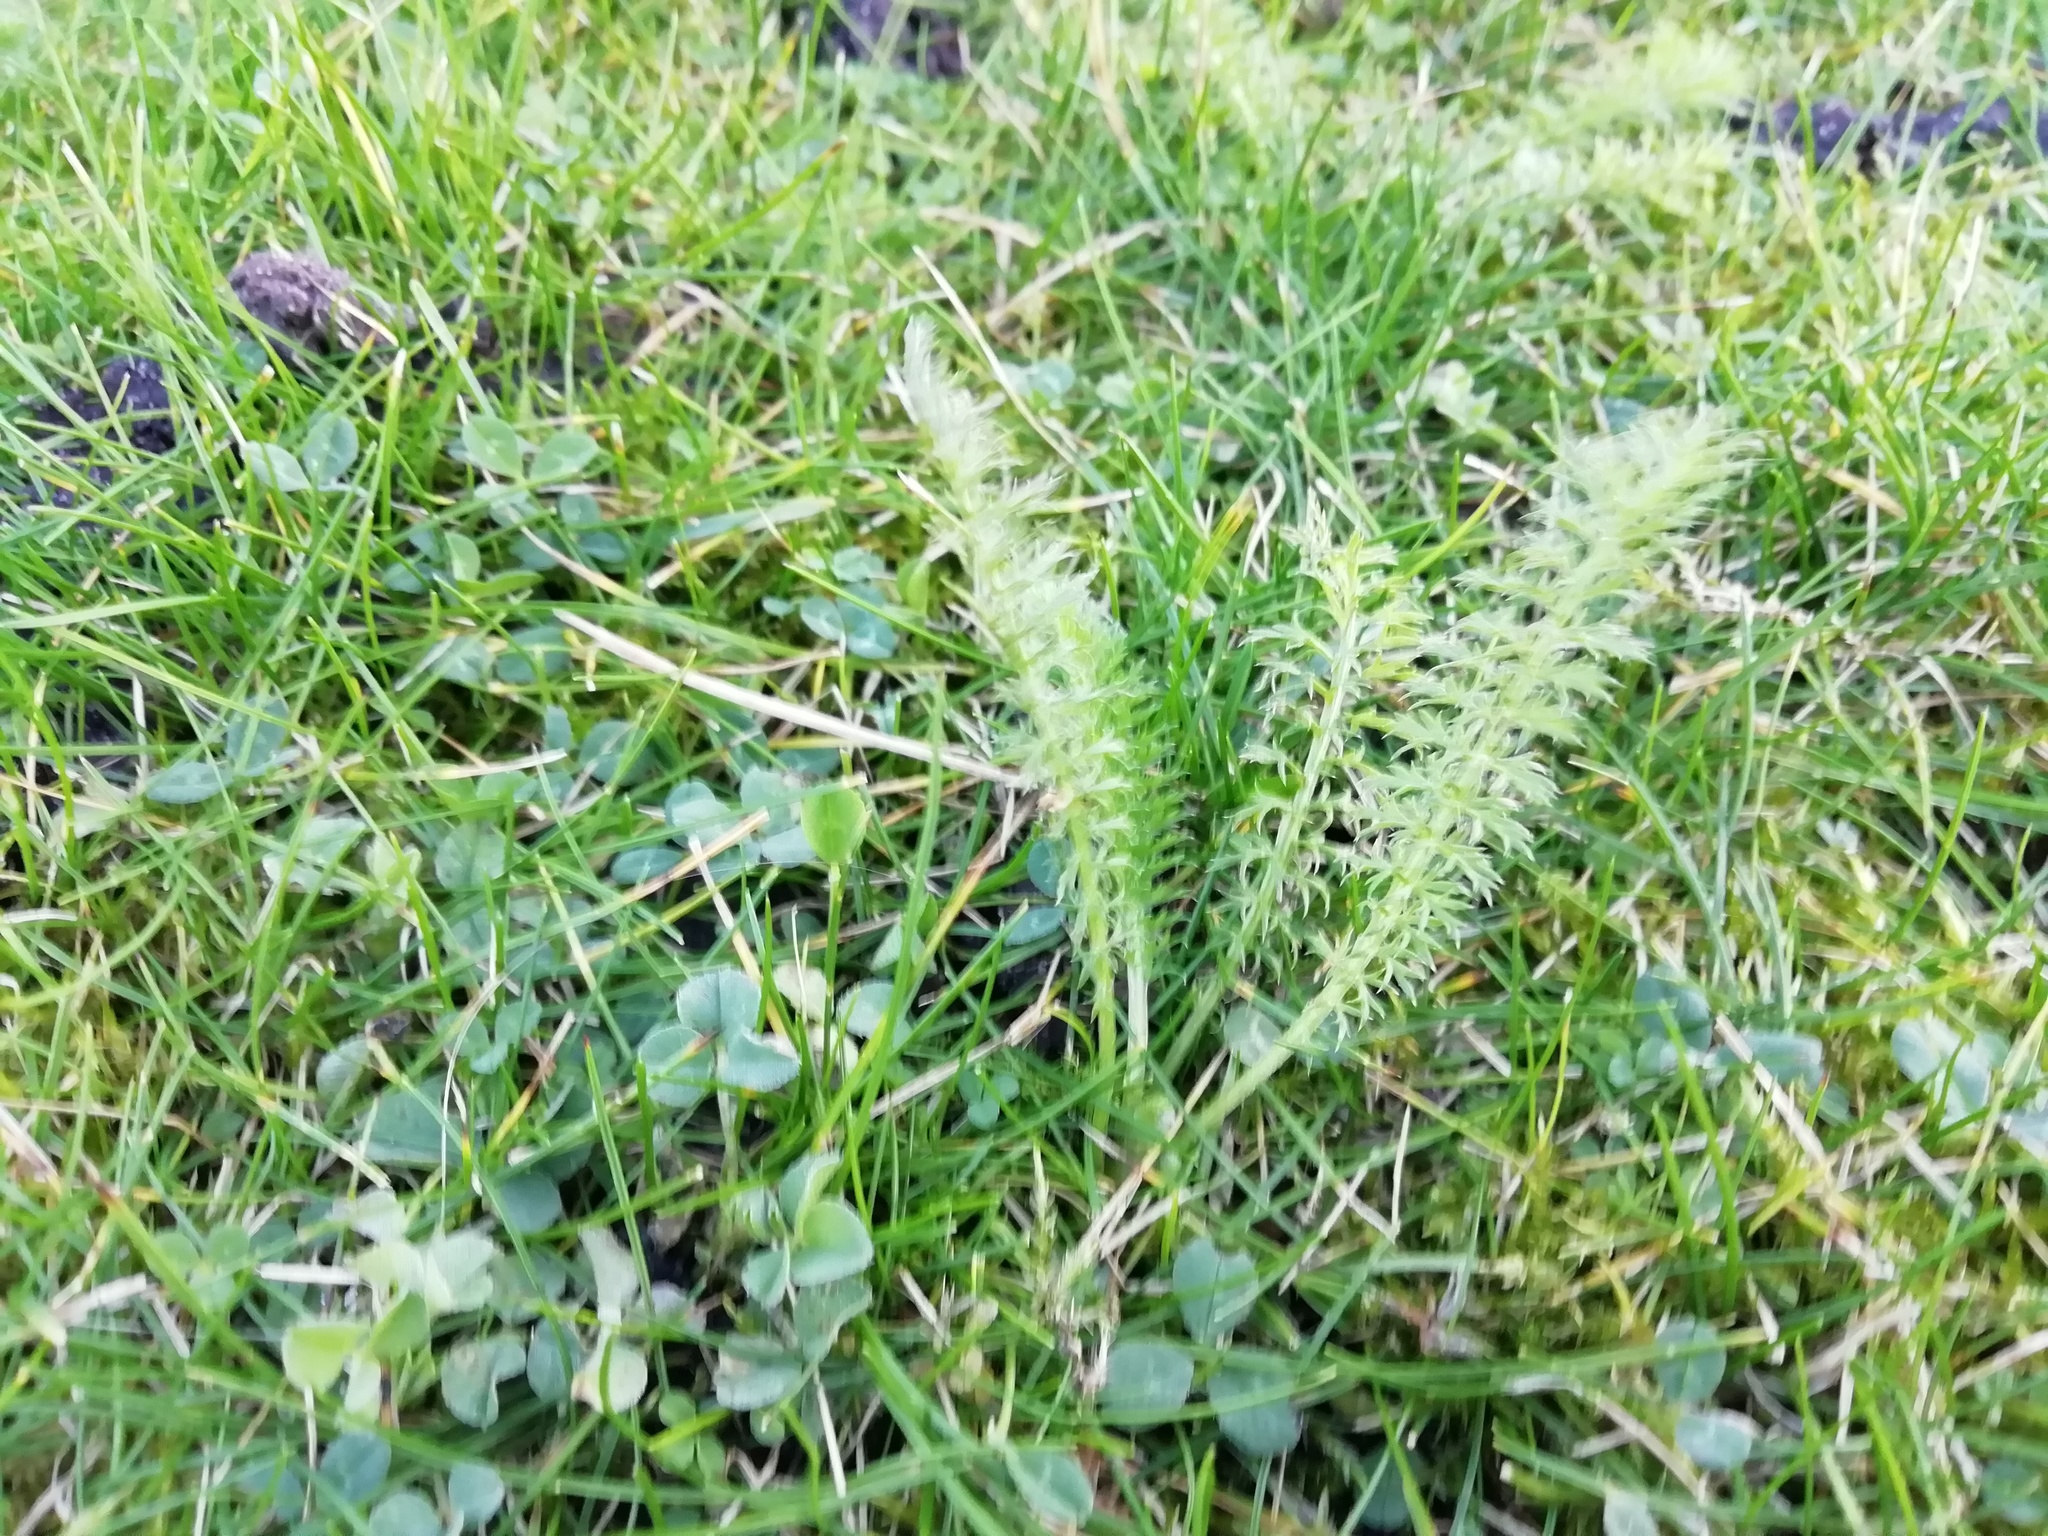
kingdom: Plantae
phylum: Tracheophyta
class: Magnoliopsida
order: Asterales
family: Asteraceae
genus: Achillea
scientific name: Achillea millefolium
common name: Yarrow
